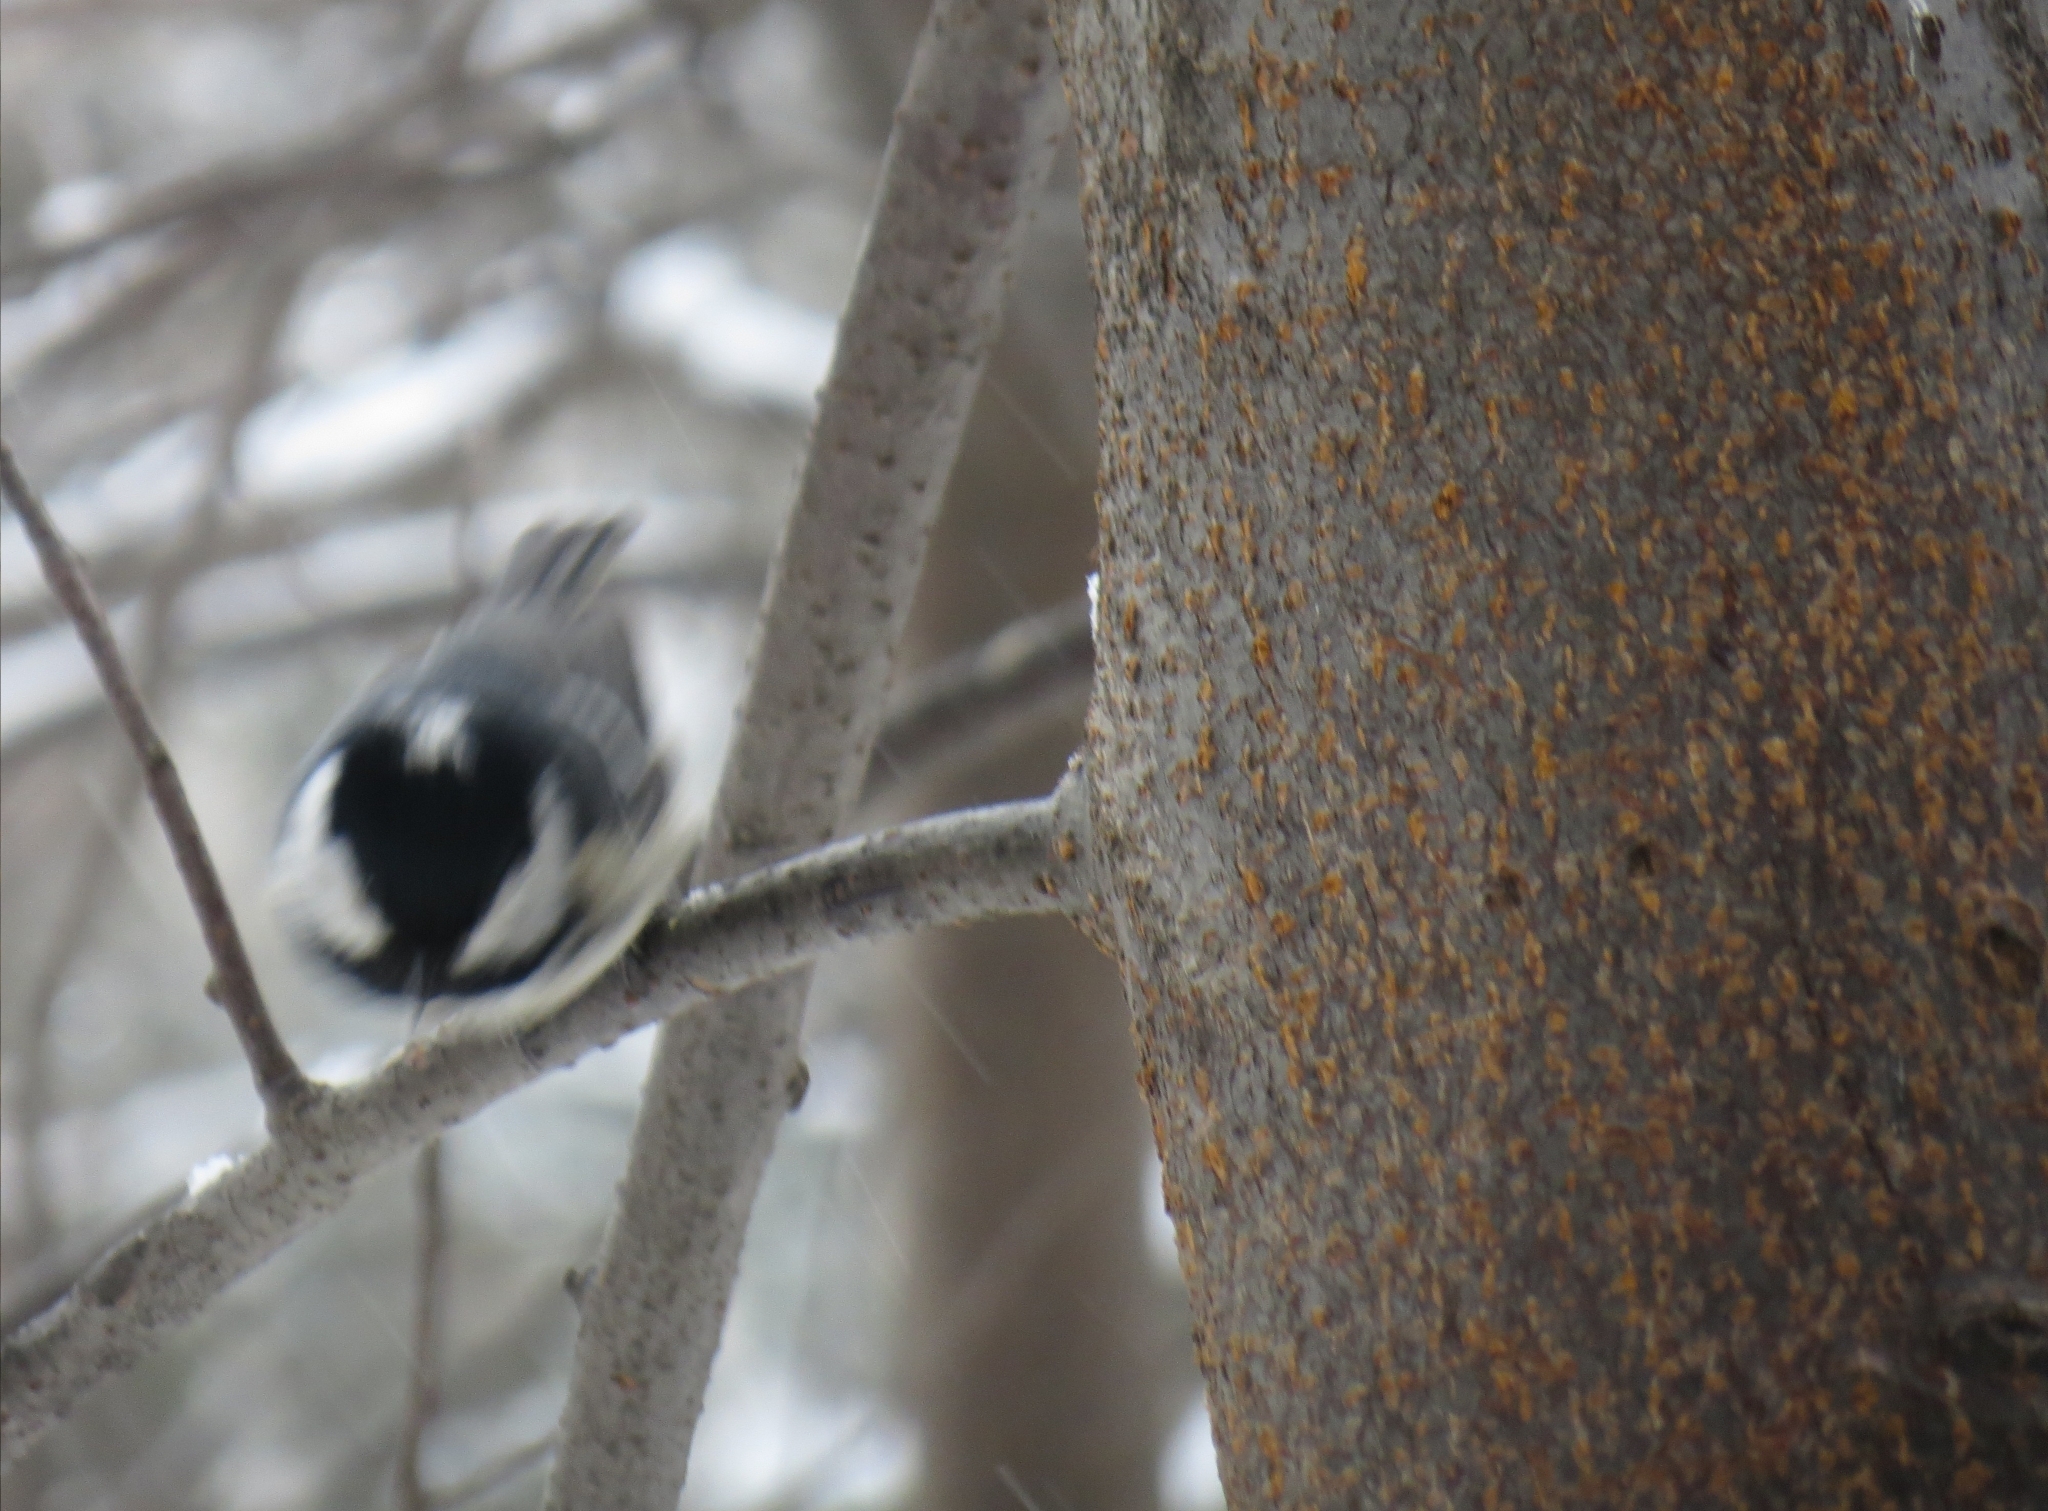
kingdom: Animalia
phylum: Chordata
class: Aves
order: Passeriformes
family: Paridae
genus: Periparus
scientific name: Periparus ater
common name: Coal tit
